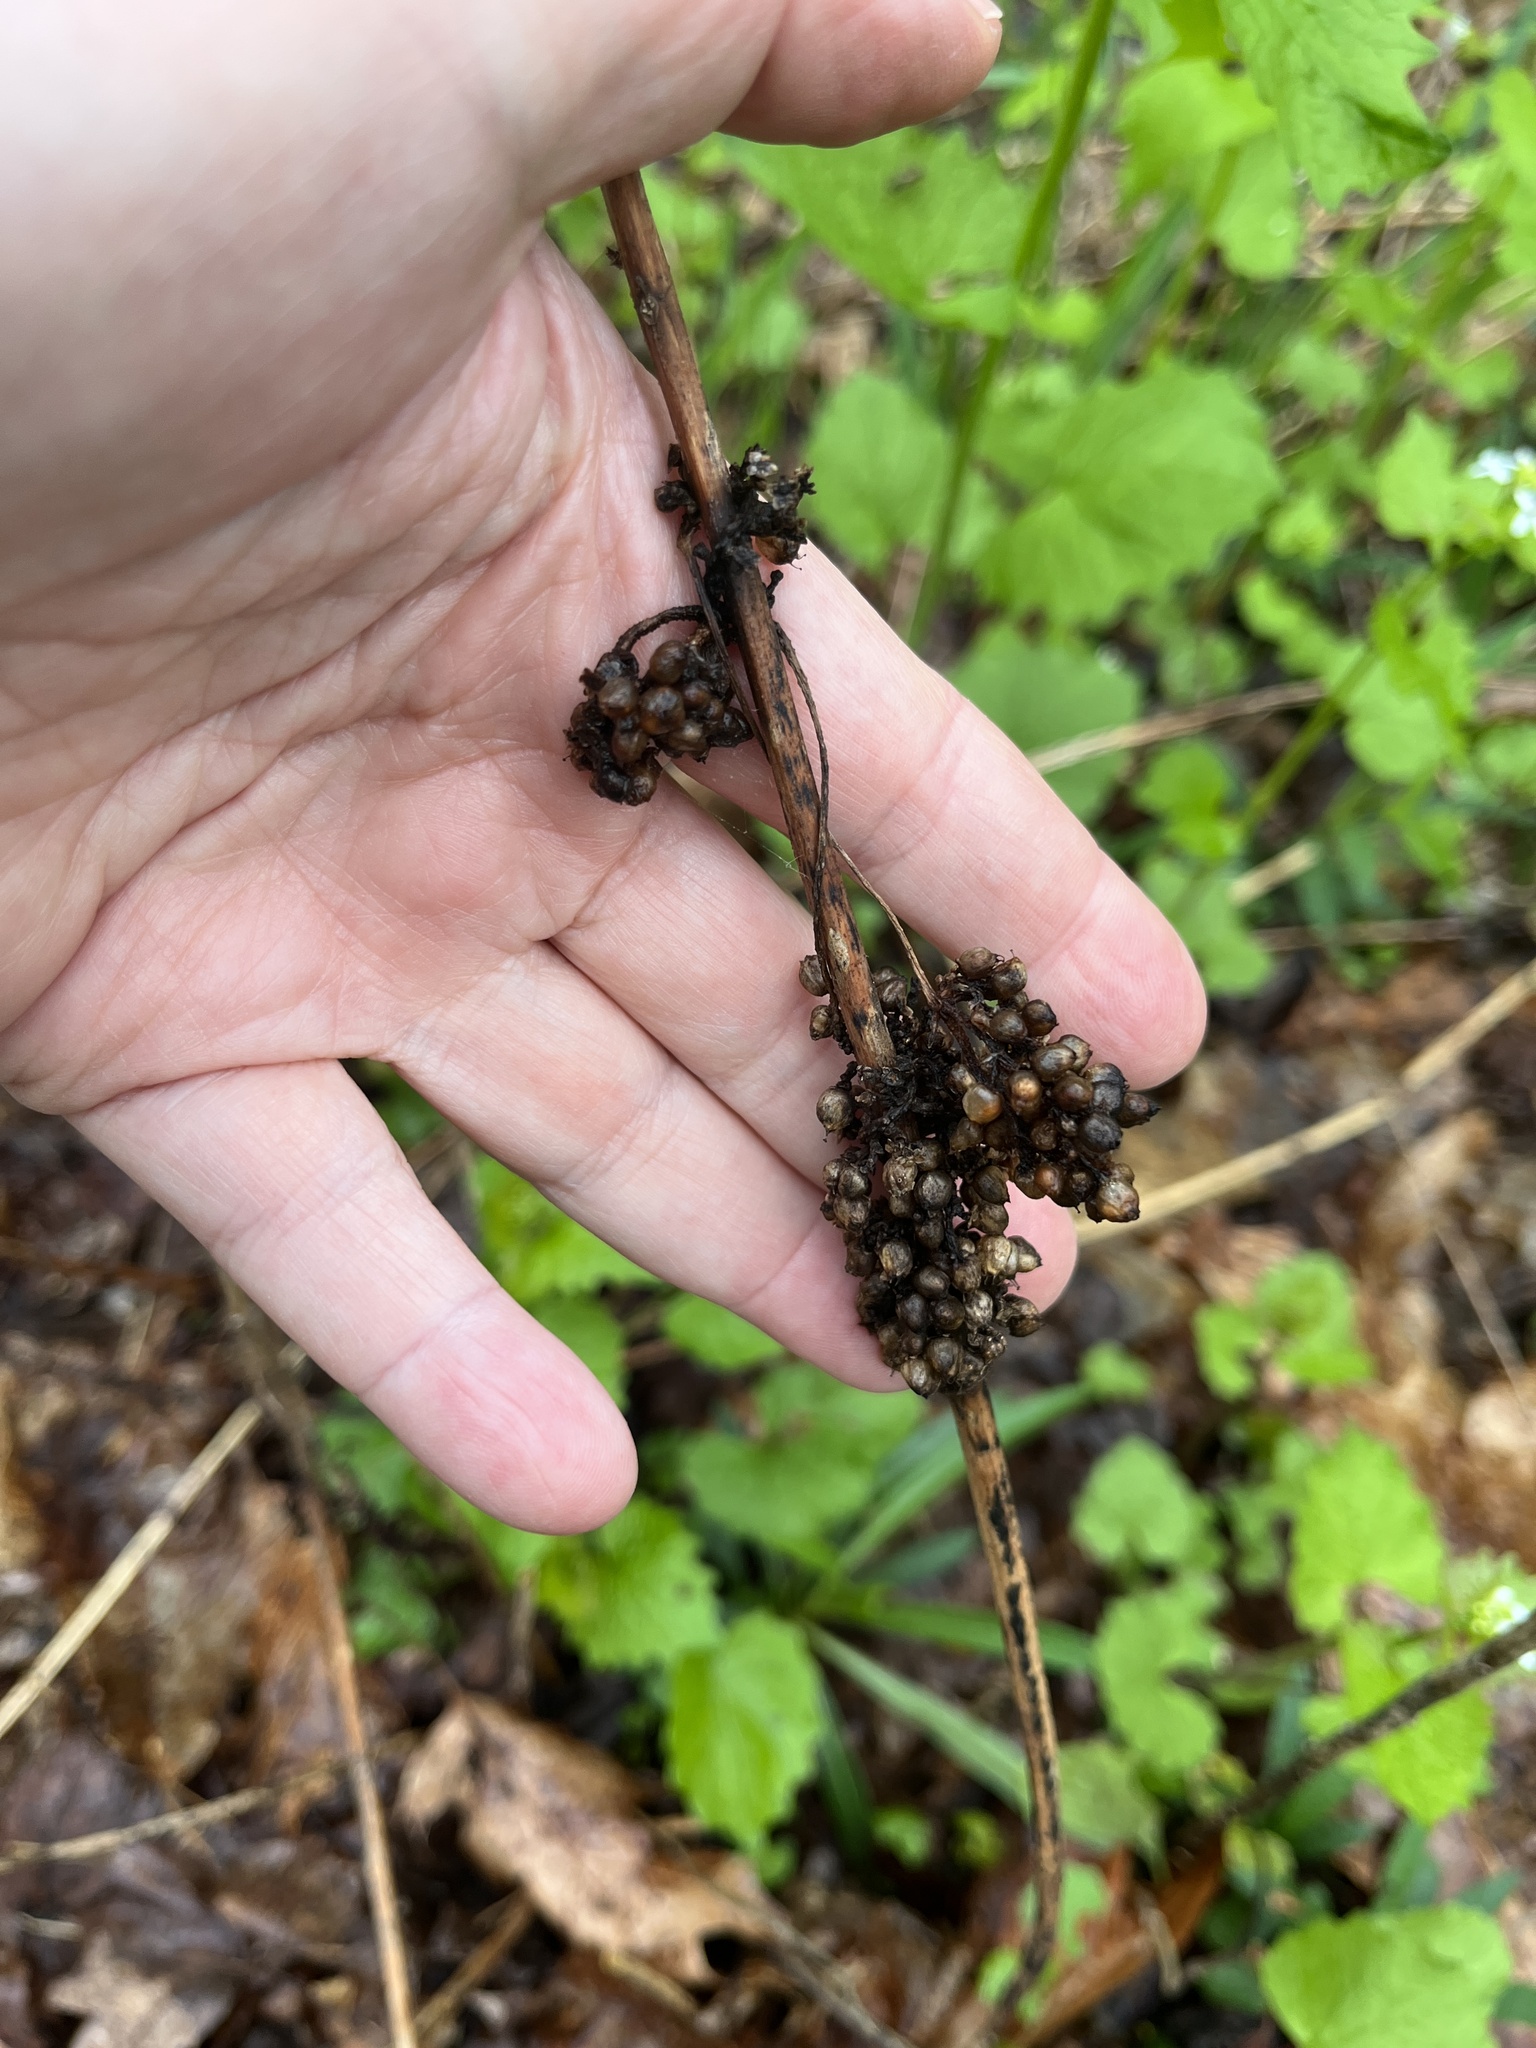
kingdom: Plantae
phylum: Tracheophyta
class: Magnoliopsida
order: Solanales
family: Convolvulaceae
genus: Cuscuta
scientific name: Cuscuta gronovii
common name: Common dodder
